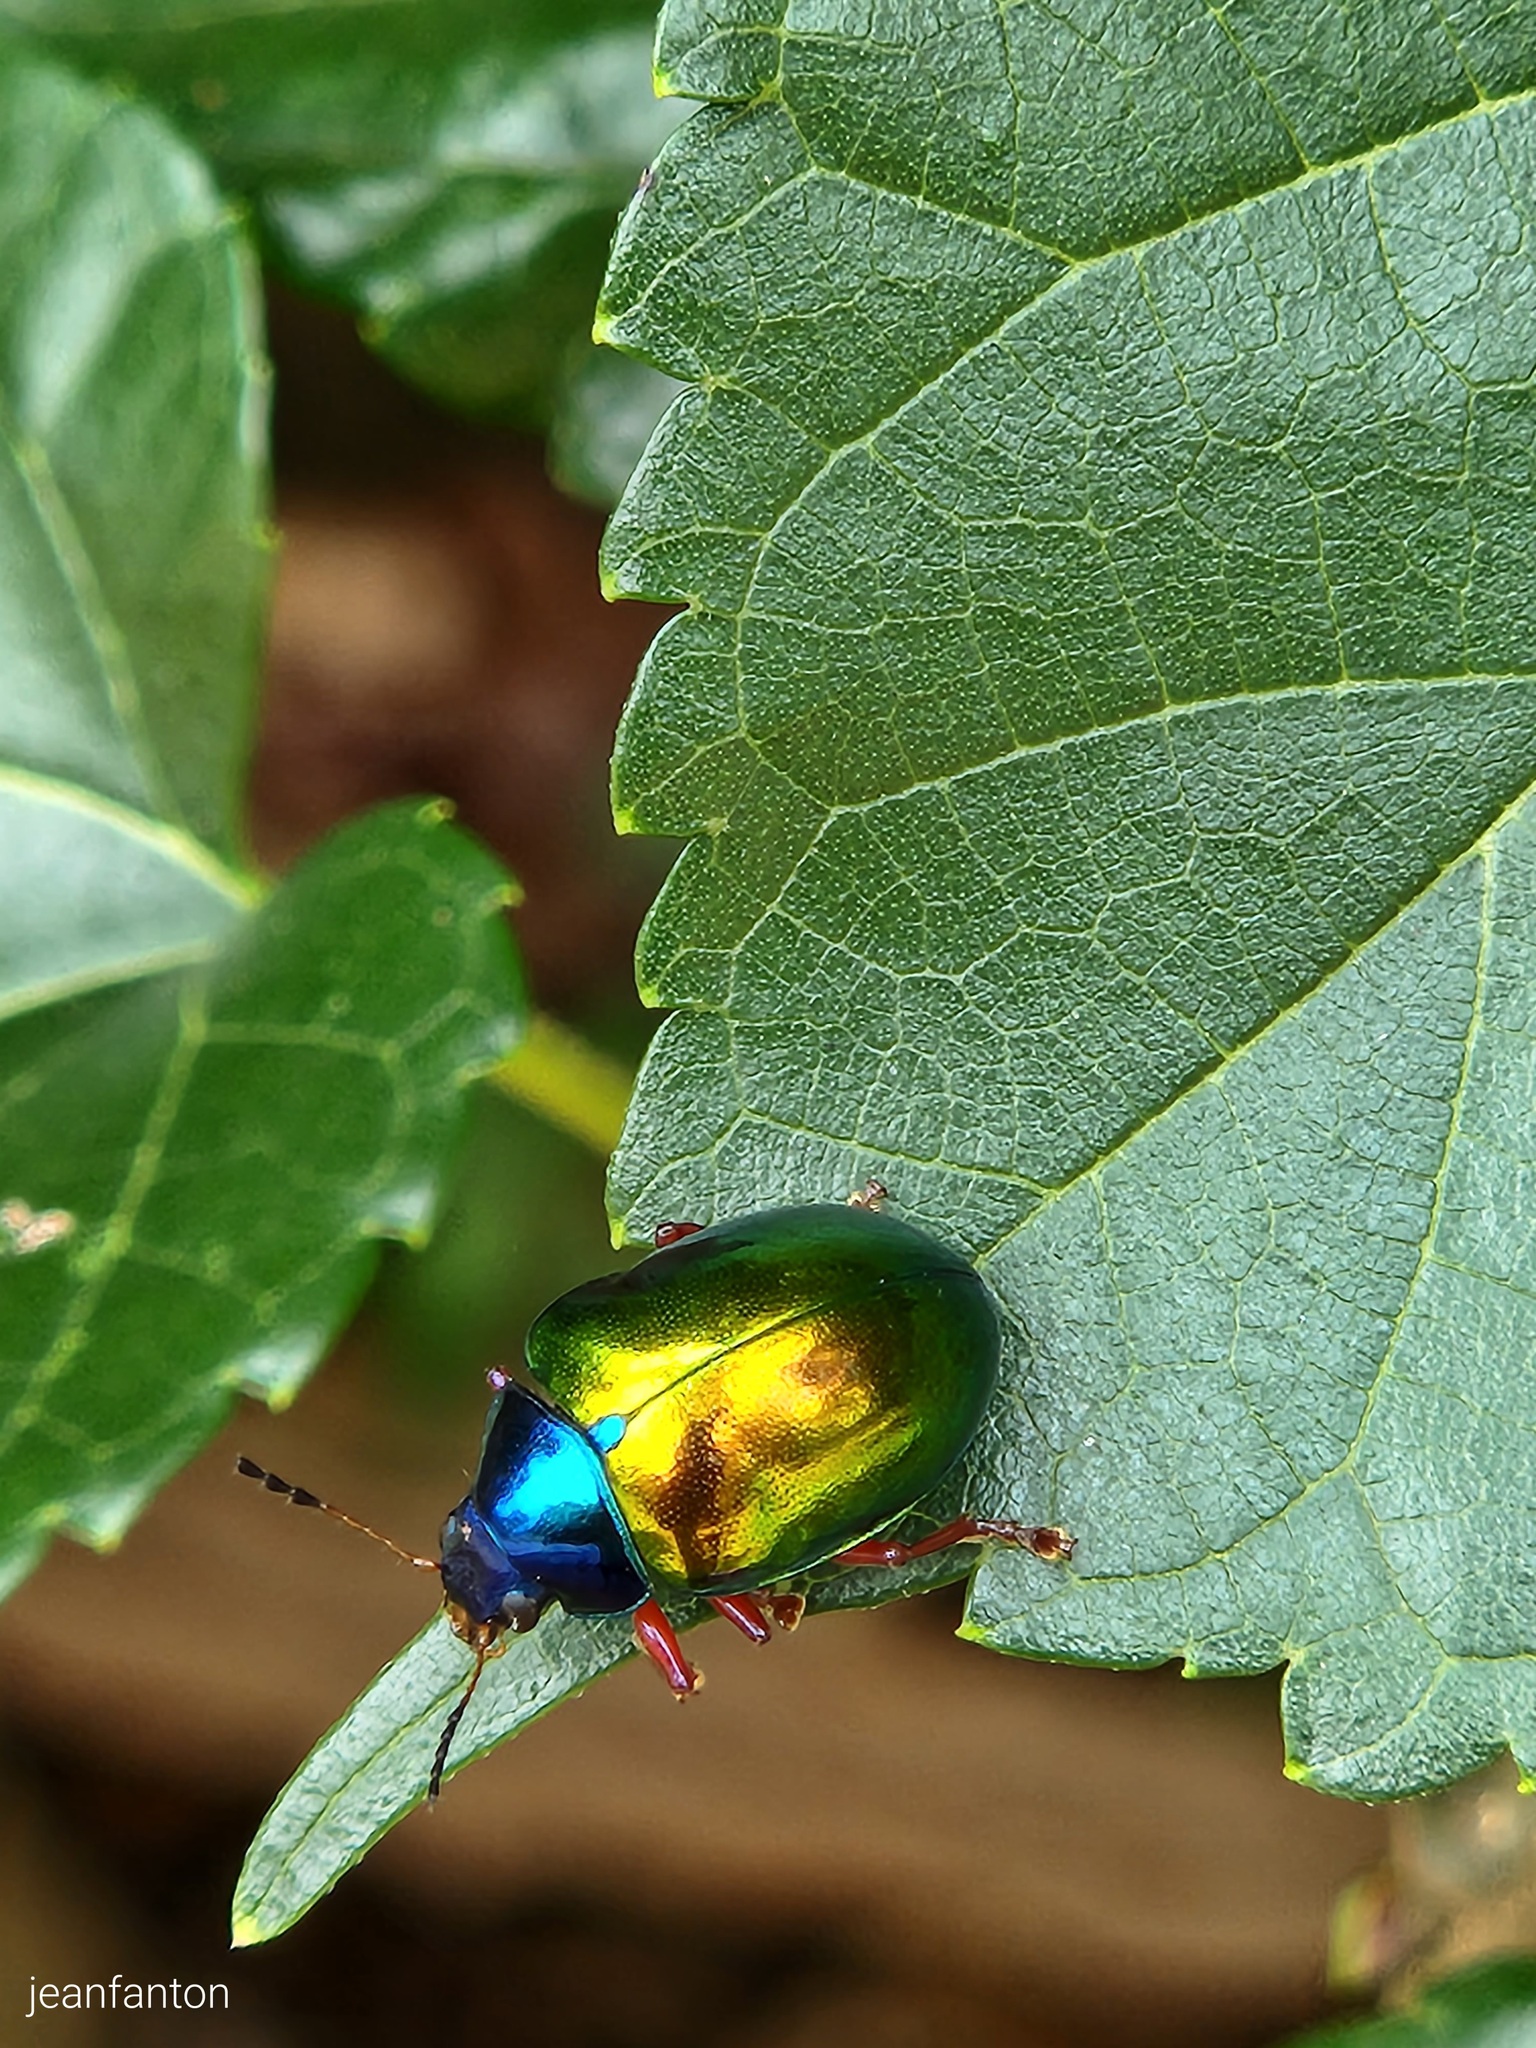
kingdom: Animalia
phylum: Arthropoda
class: Insecta
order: Coleoptera
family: Chrysomelidae
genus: Iphimeis
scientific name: Iphimeis
